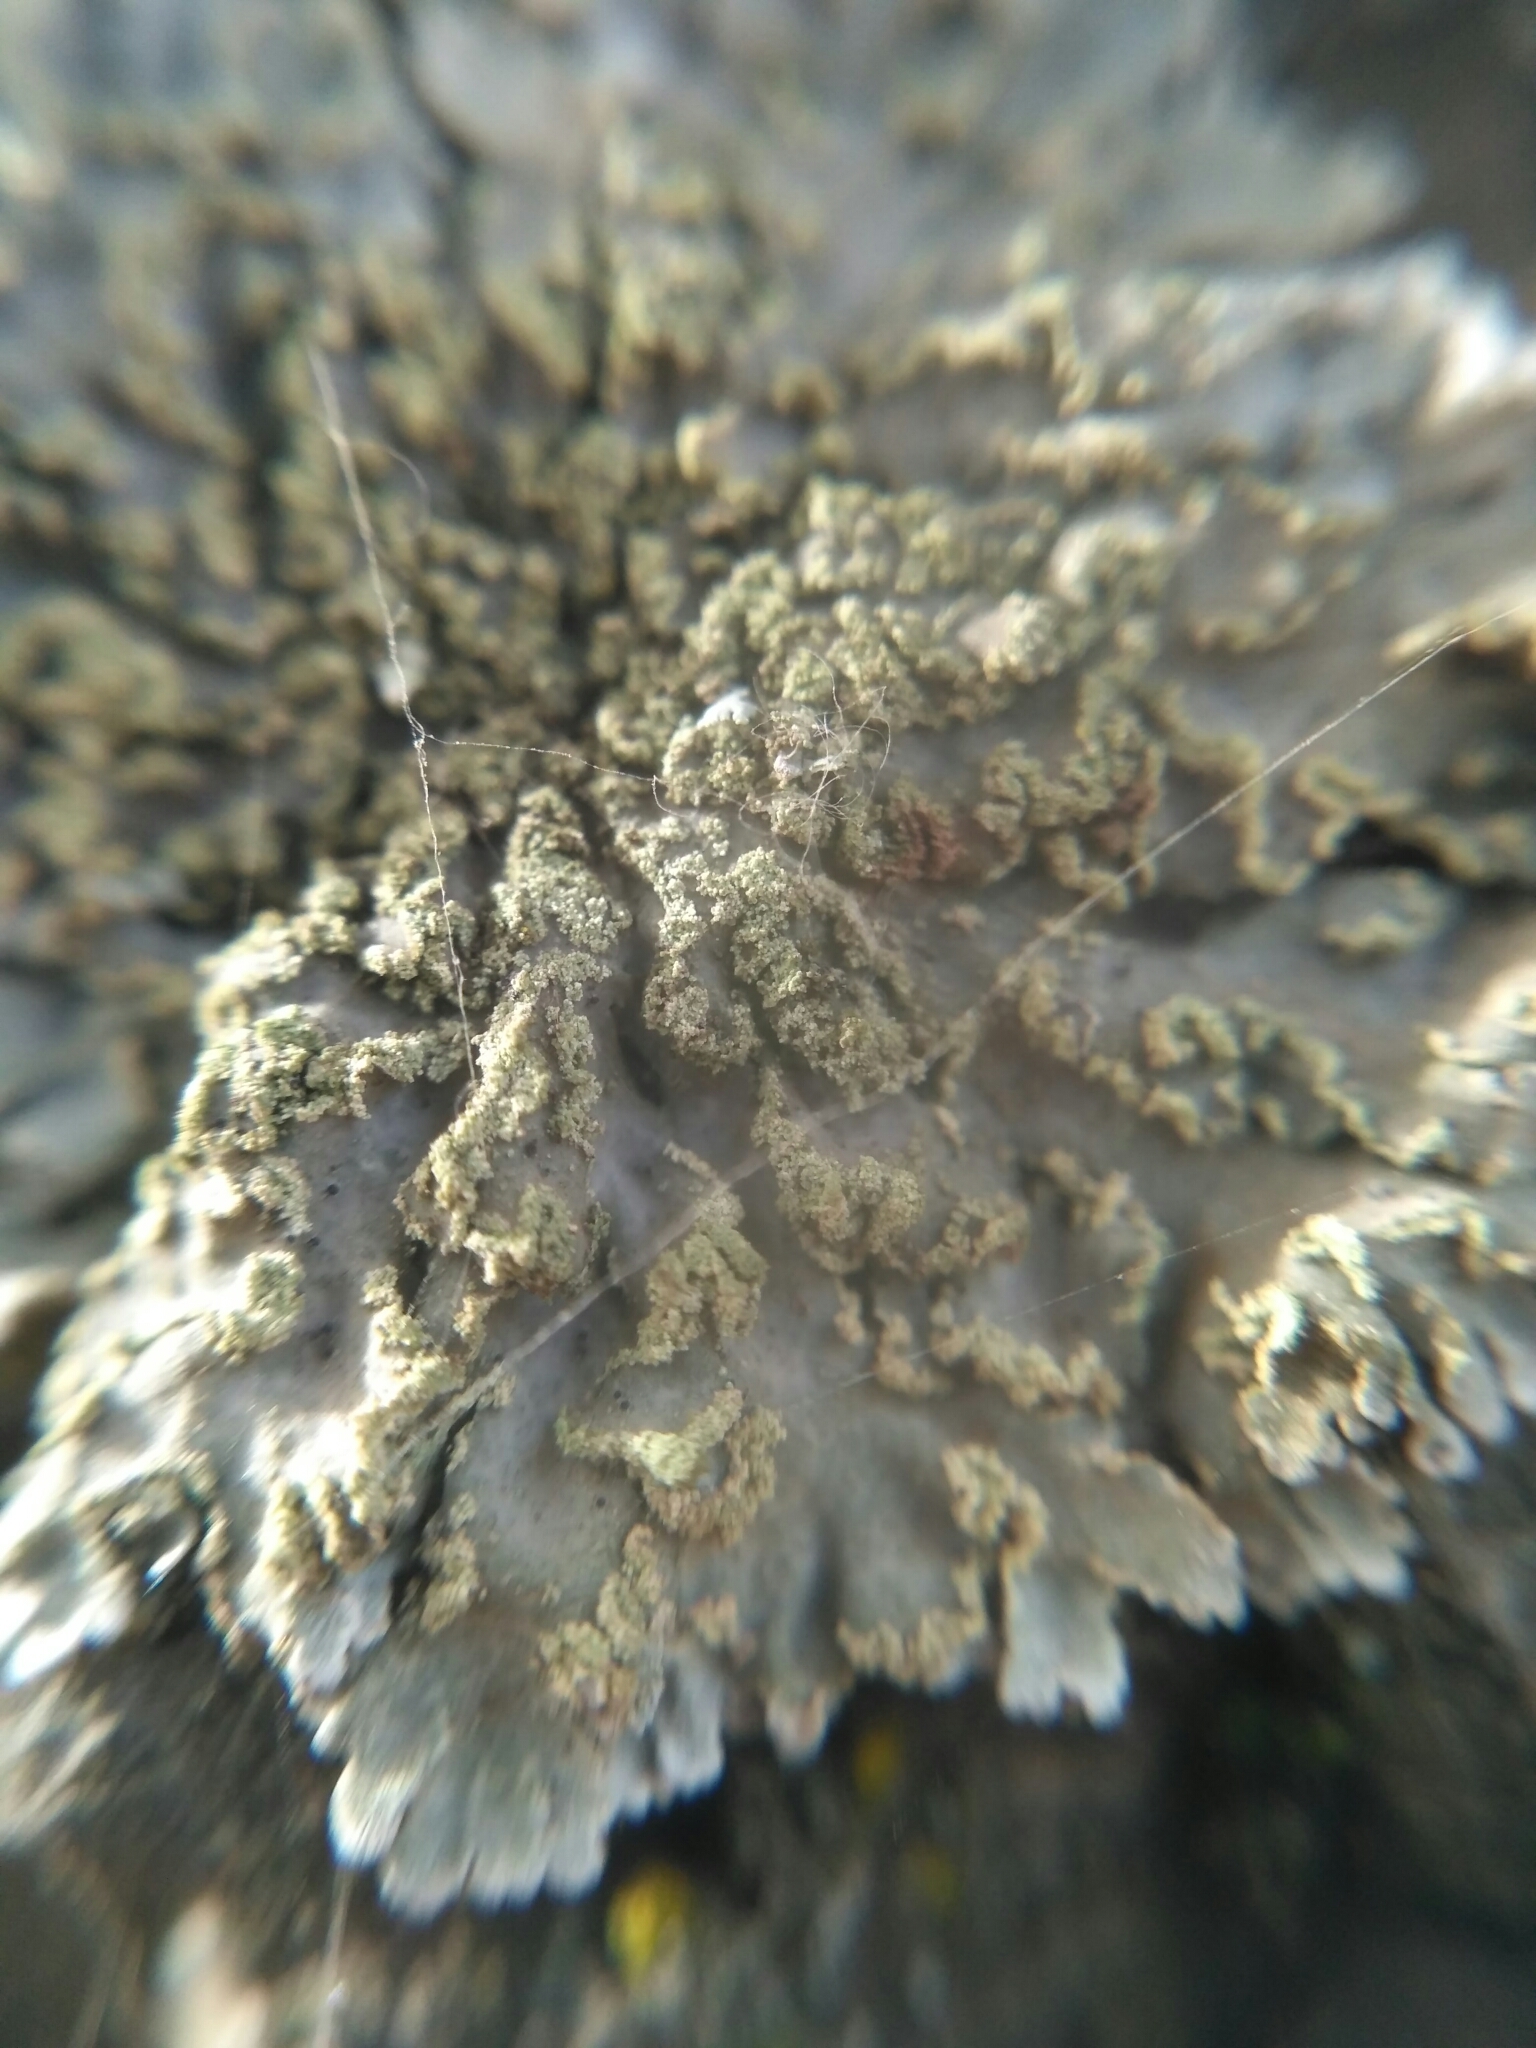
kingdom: Fungi
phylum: Ascomycota
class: Lecanoromycetes
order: Caliciales
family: Physciaceae
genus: Poeltonia
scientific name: Poeltonia grisea
